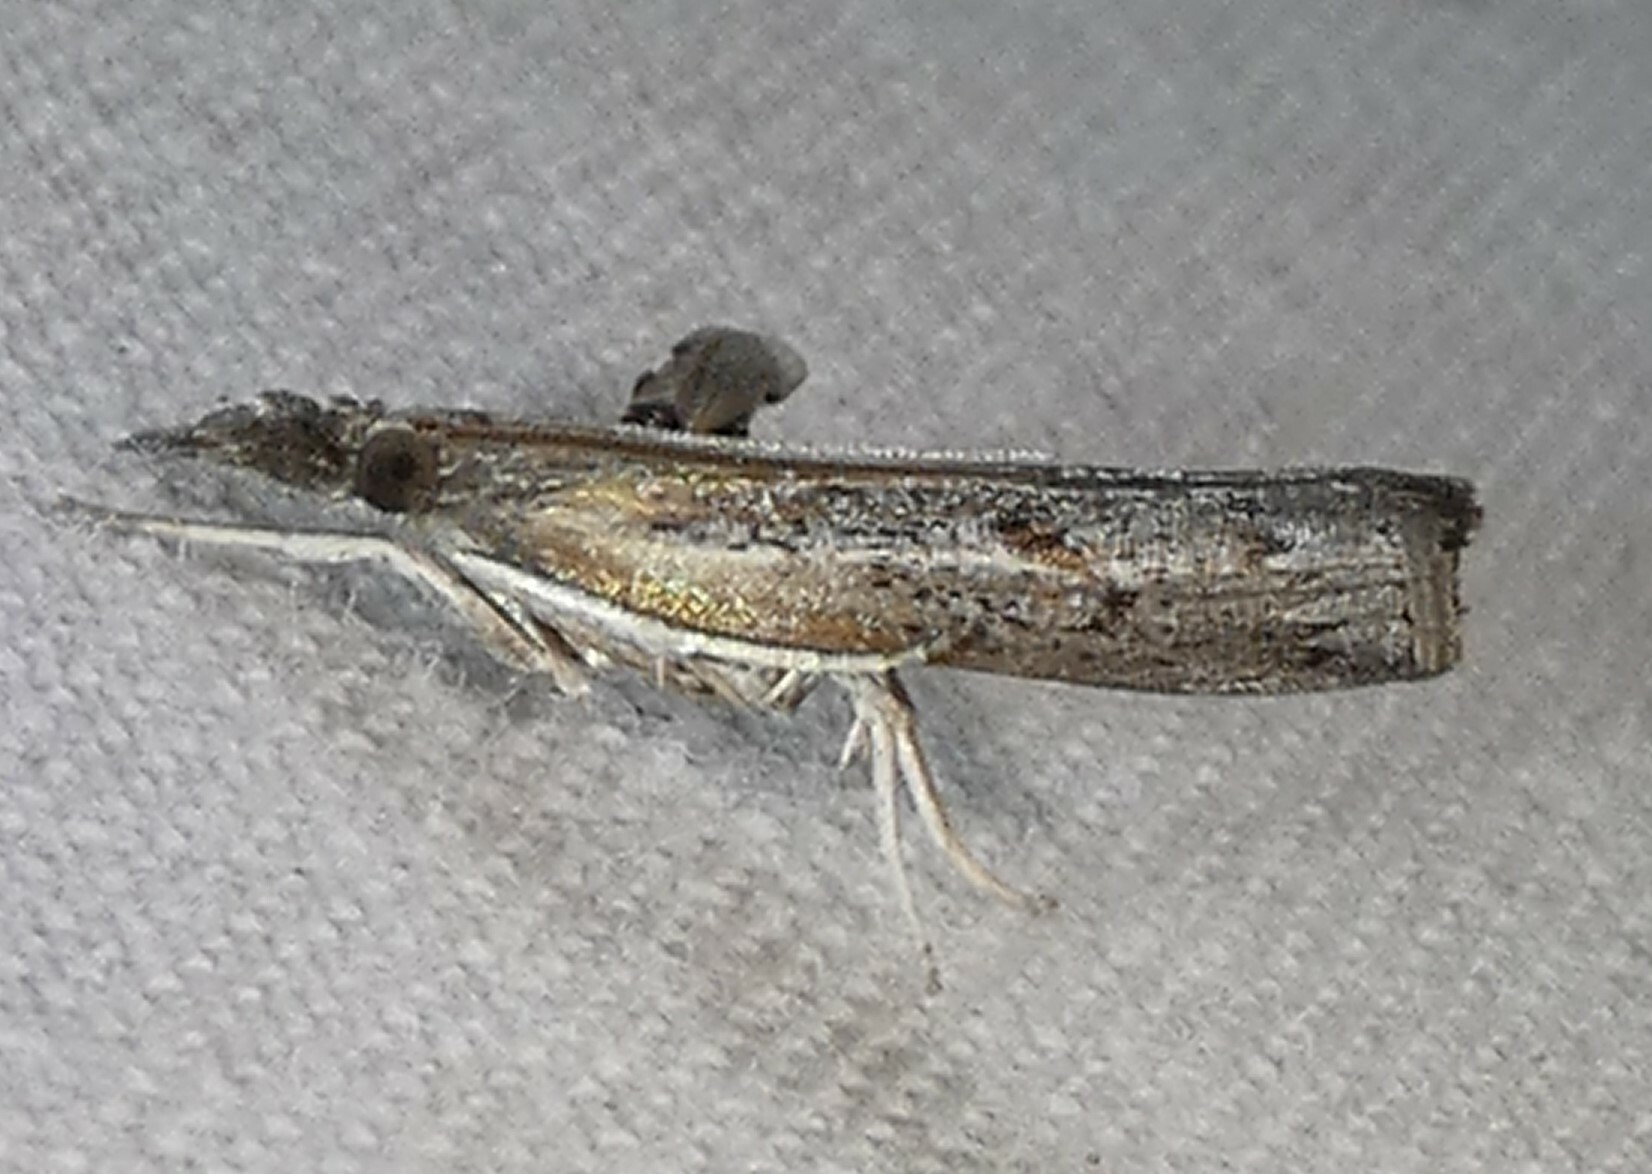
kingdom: Animalia
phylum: Arthropoda
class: Insecta
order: Lepidoptera
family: Crambidae
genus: Fissicrambus
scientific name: Fissicrambus mutabilis
